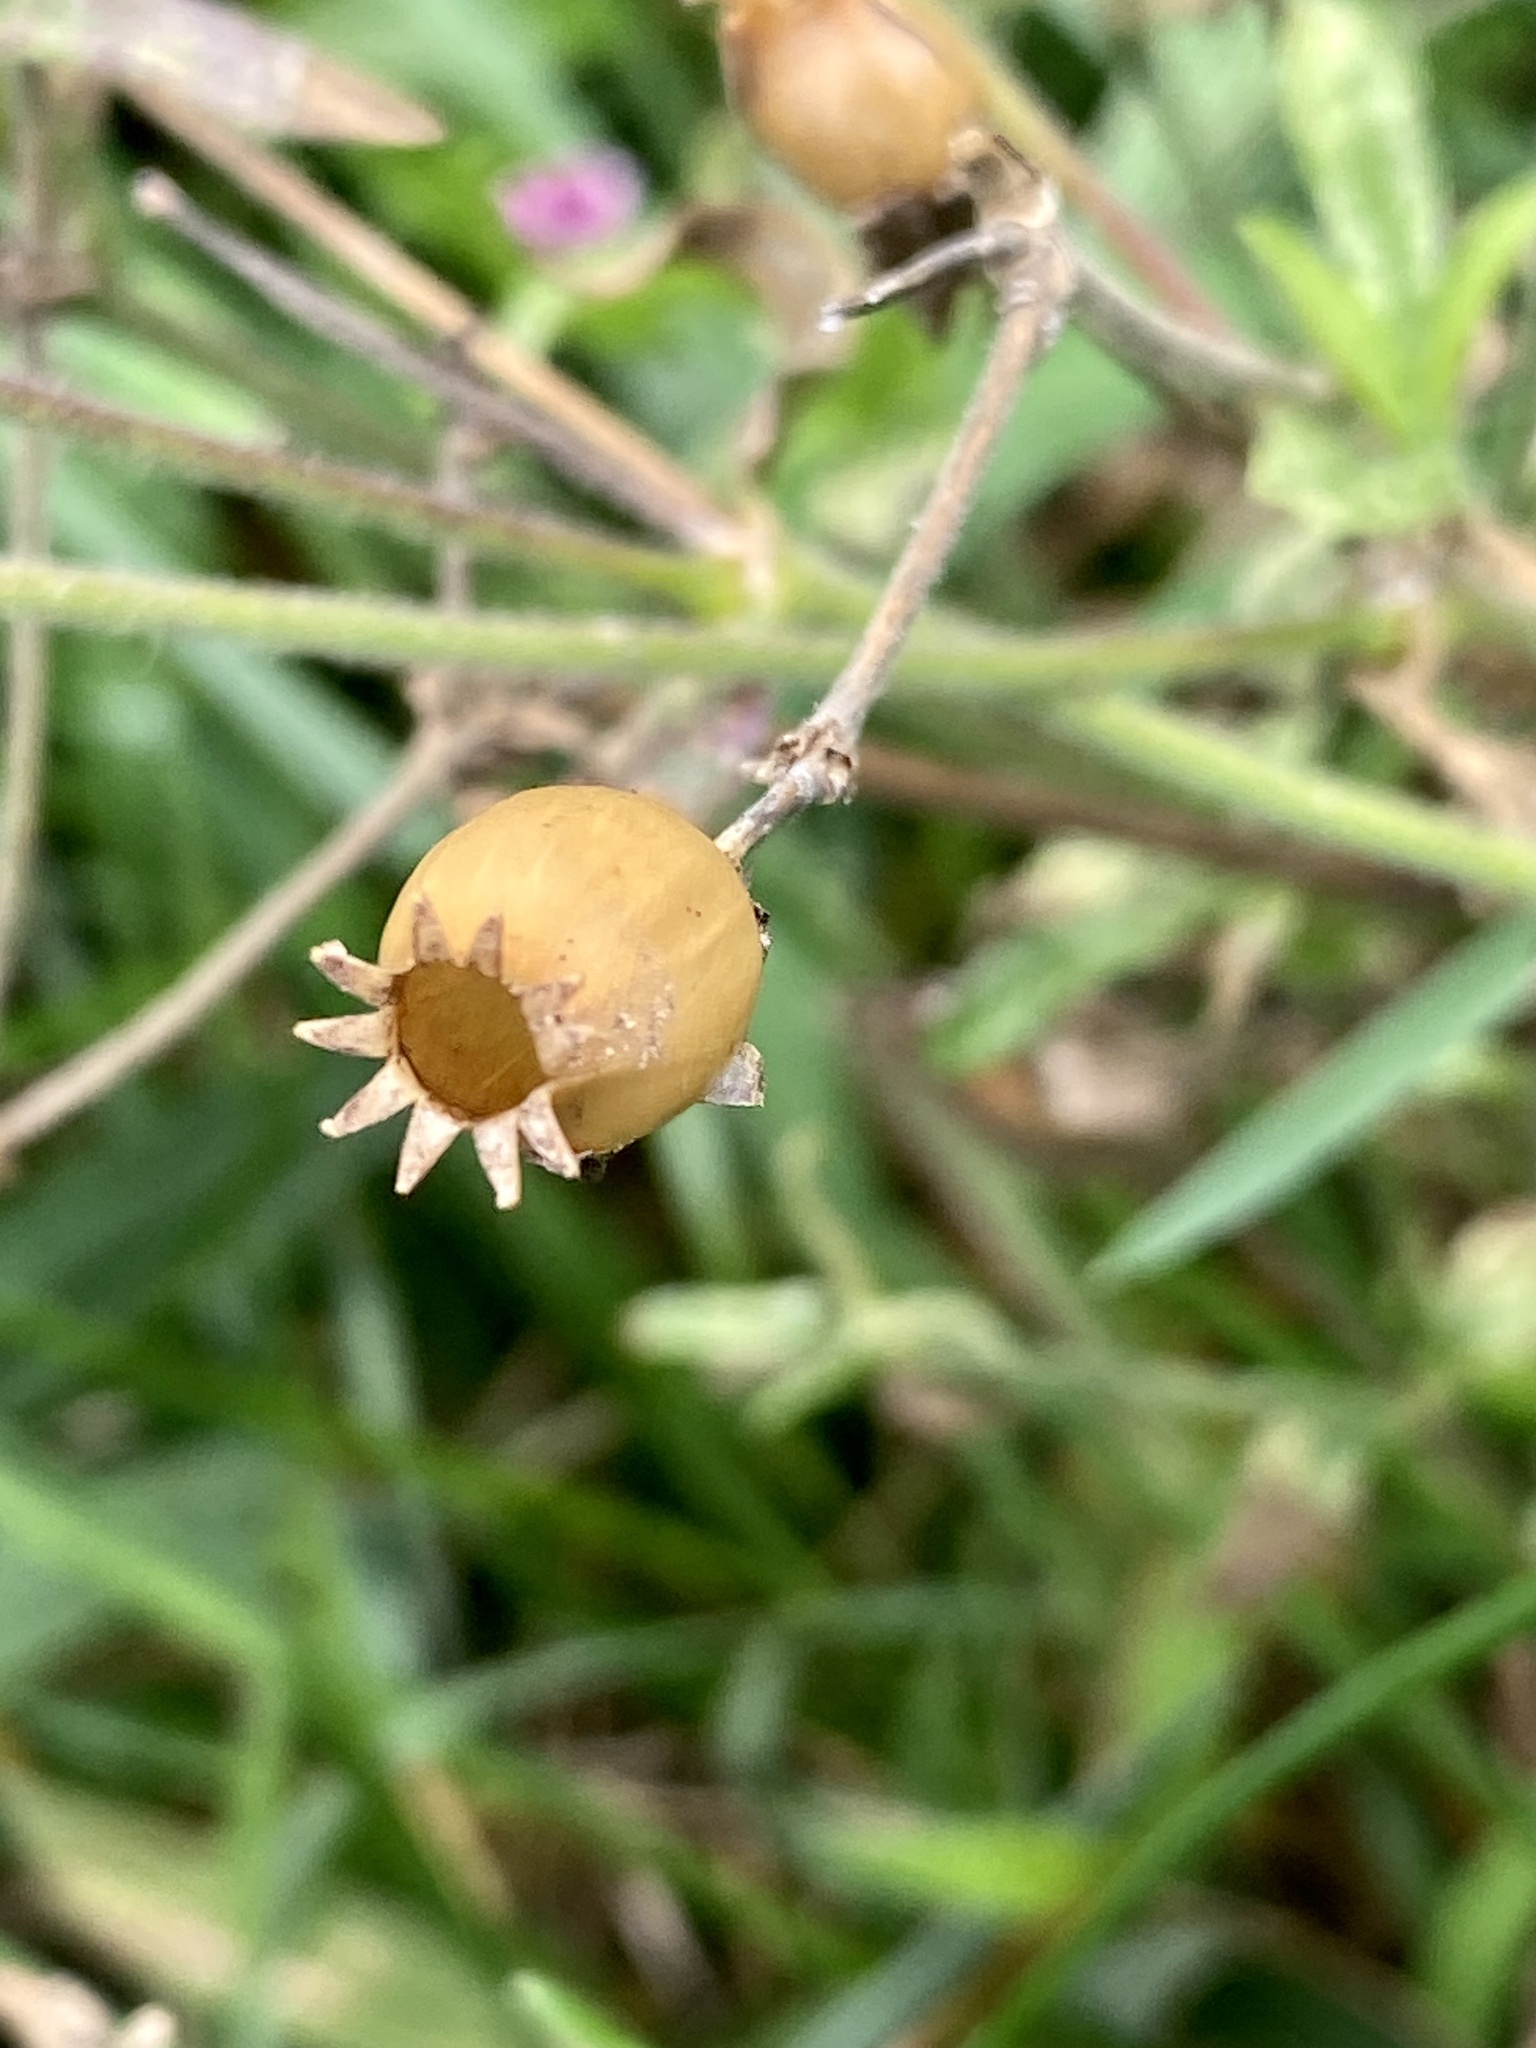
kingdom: Plantae
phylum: Tracheophyta
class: Magnoliopsida
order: Caryophyllales
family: Caryophyllaceae
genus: Silene
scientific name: Silene latifolia
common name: White campion
